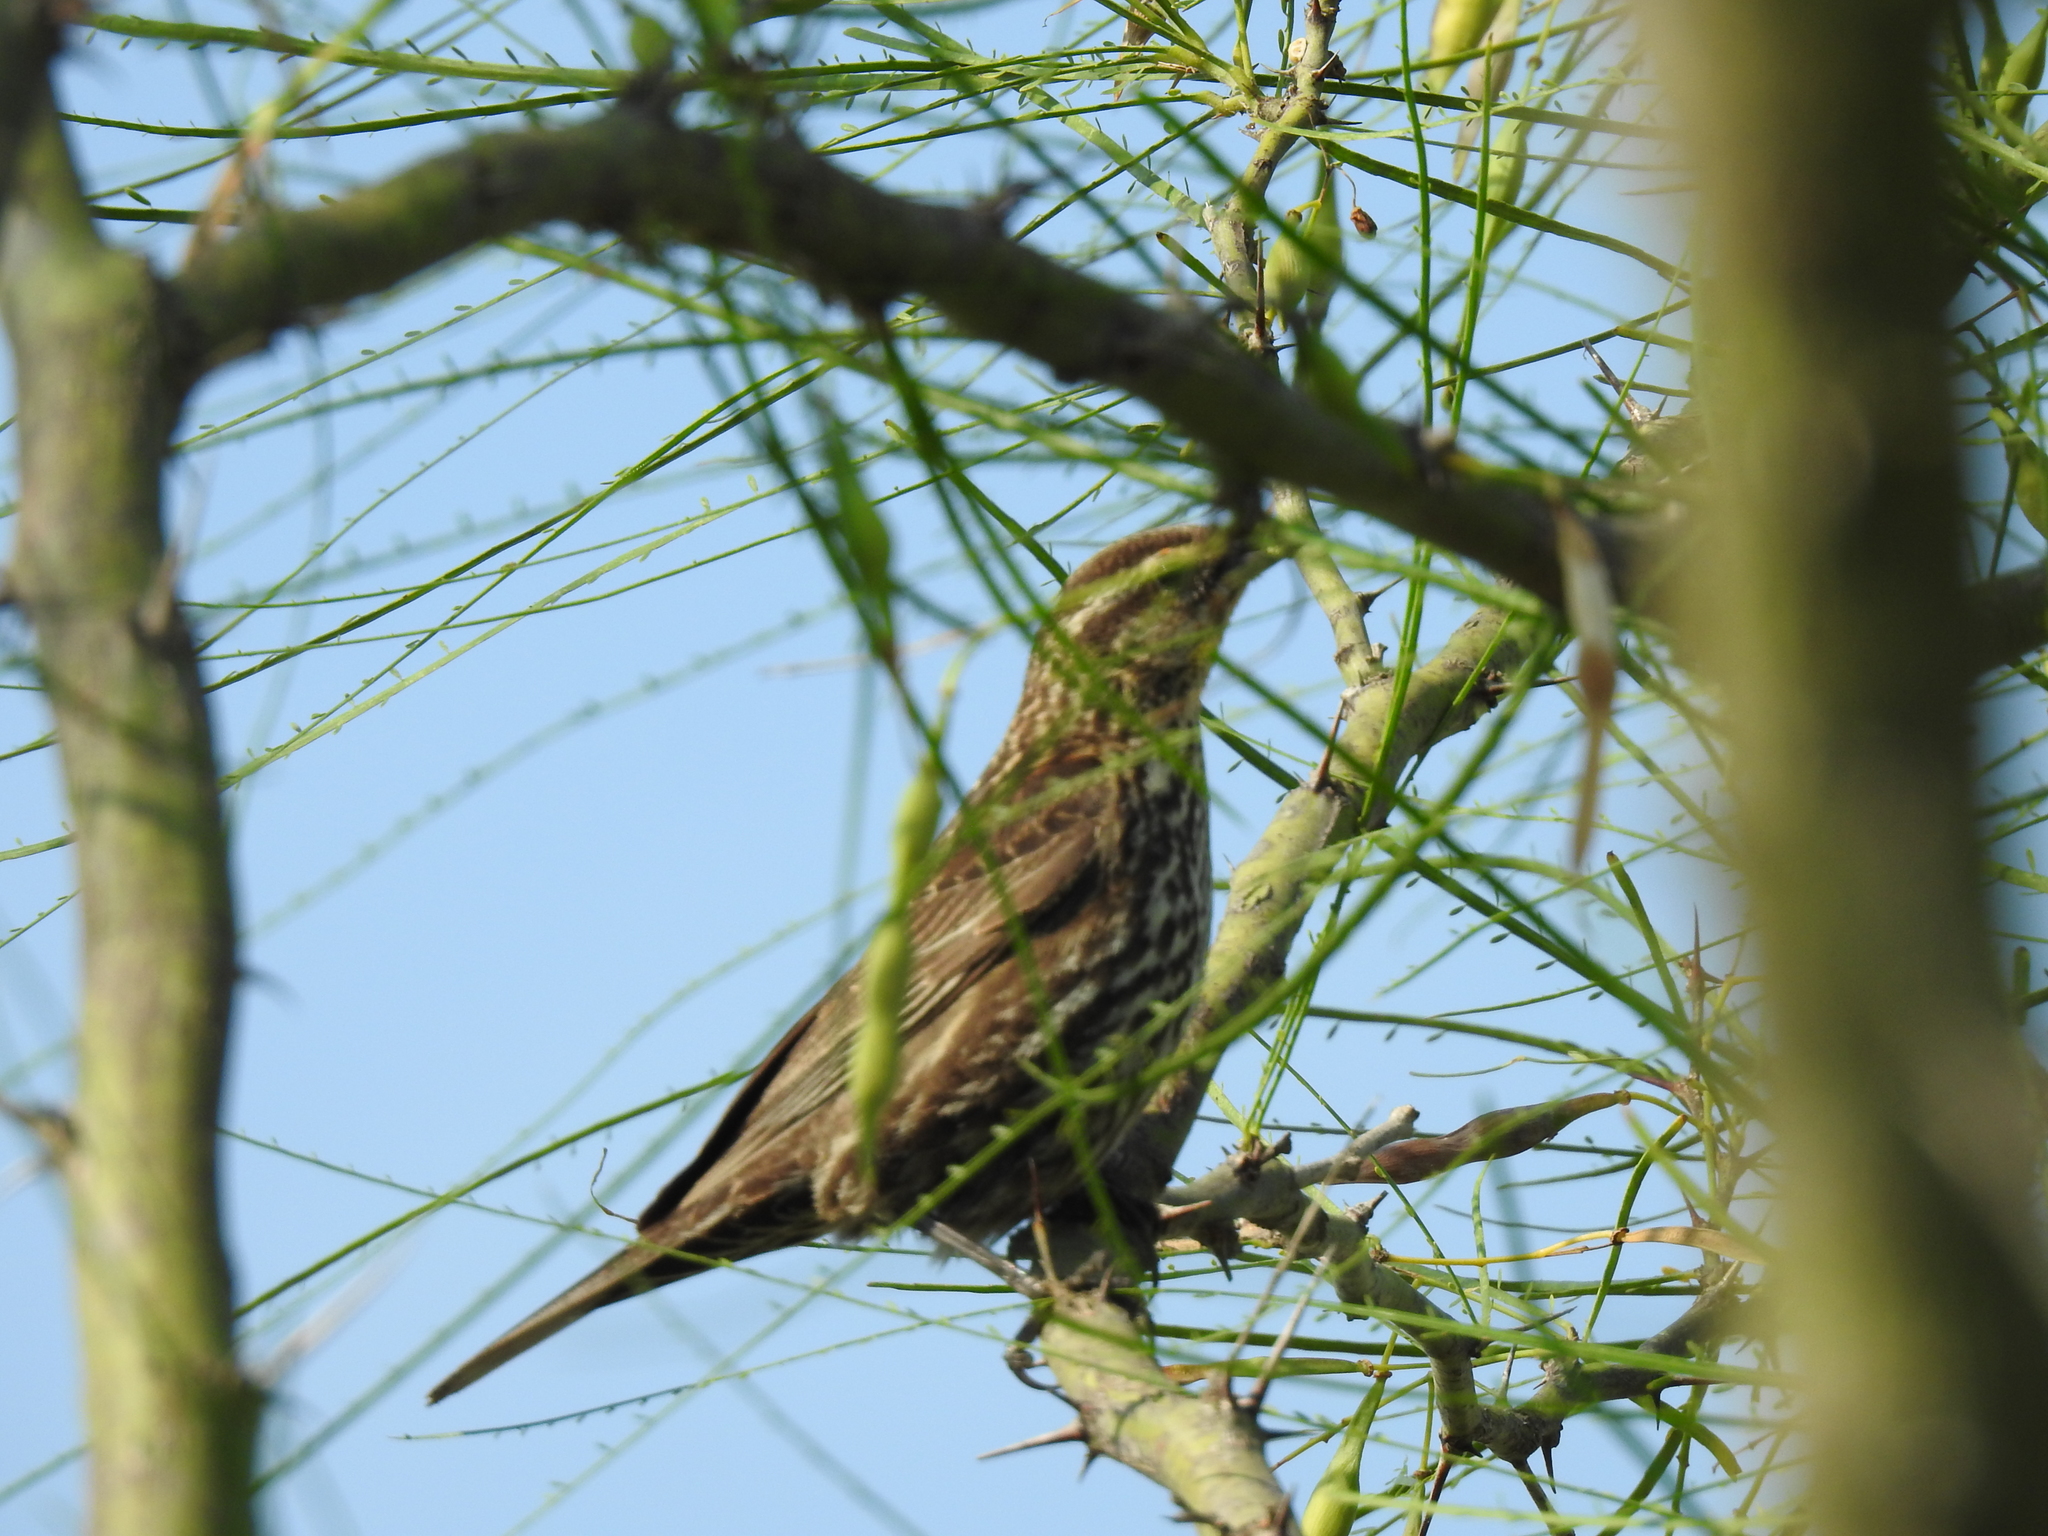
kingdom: Animalia
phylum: Chordata
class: Aves
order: Passeriformes
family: Icteridae
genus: Agelaius
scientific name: Agelaius phoeniceus
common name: Red-winged blackbird
